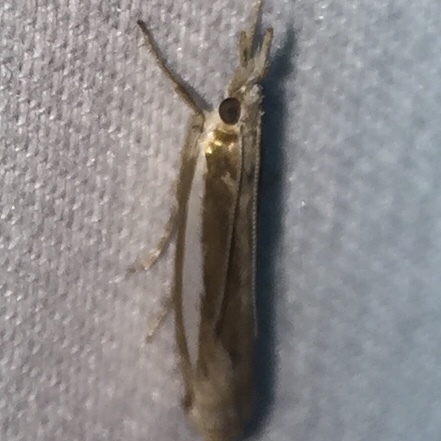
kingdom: Animalia
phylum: Arthropoda
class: Insecta
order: Lepidoptera
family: Crambidae
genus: Crambus
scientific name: Crambus praefectellus
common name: Common grass-veneer
